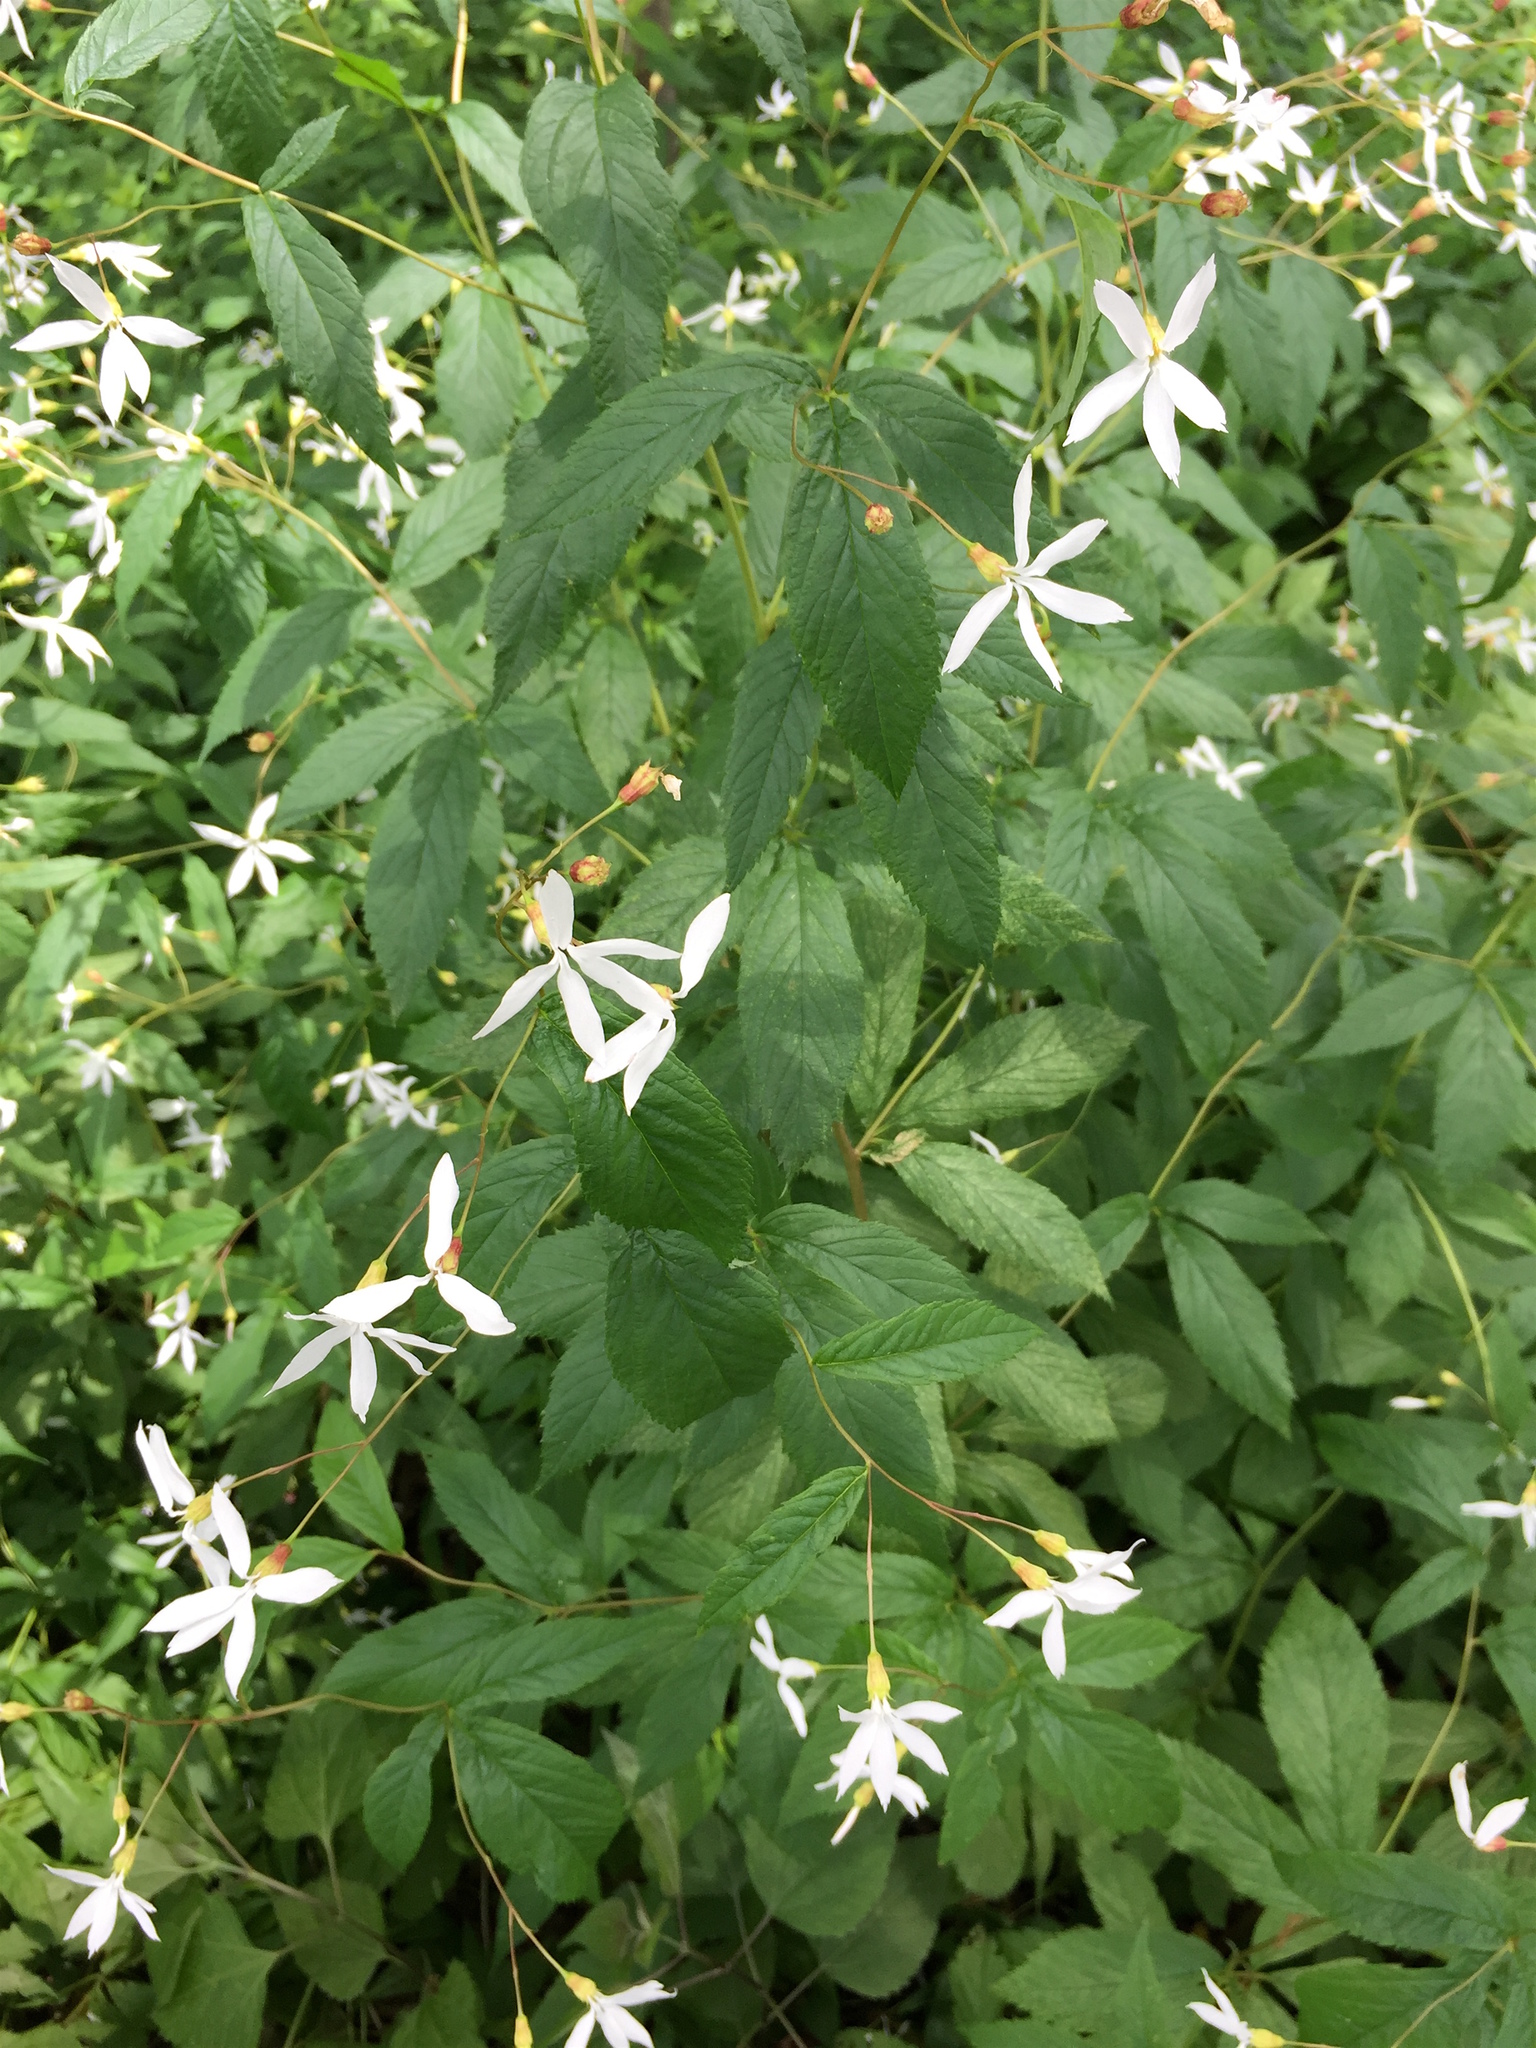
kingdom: Plantae
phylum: Tracheophyta
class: Magnoliopsida
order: Rosales
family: Rosaceae
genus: Gillenia
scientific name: Gillenia trifoliata
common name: Bowman's-root
